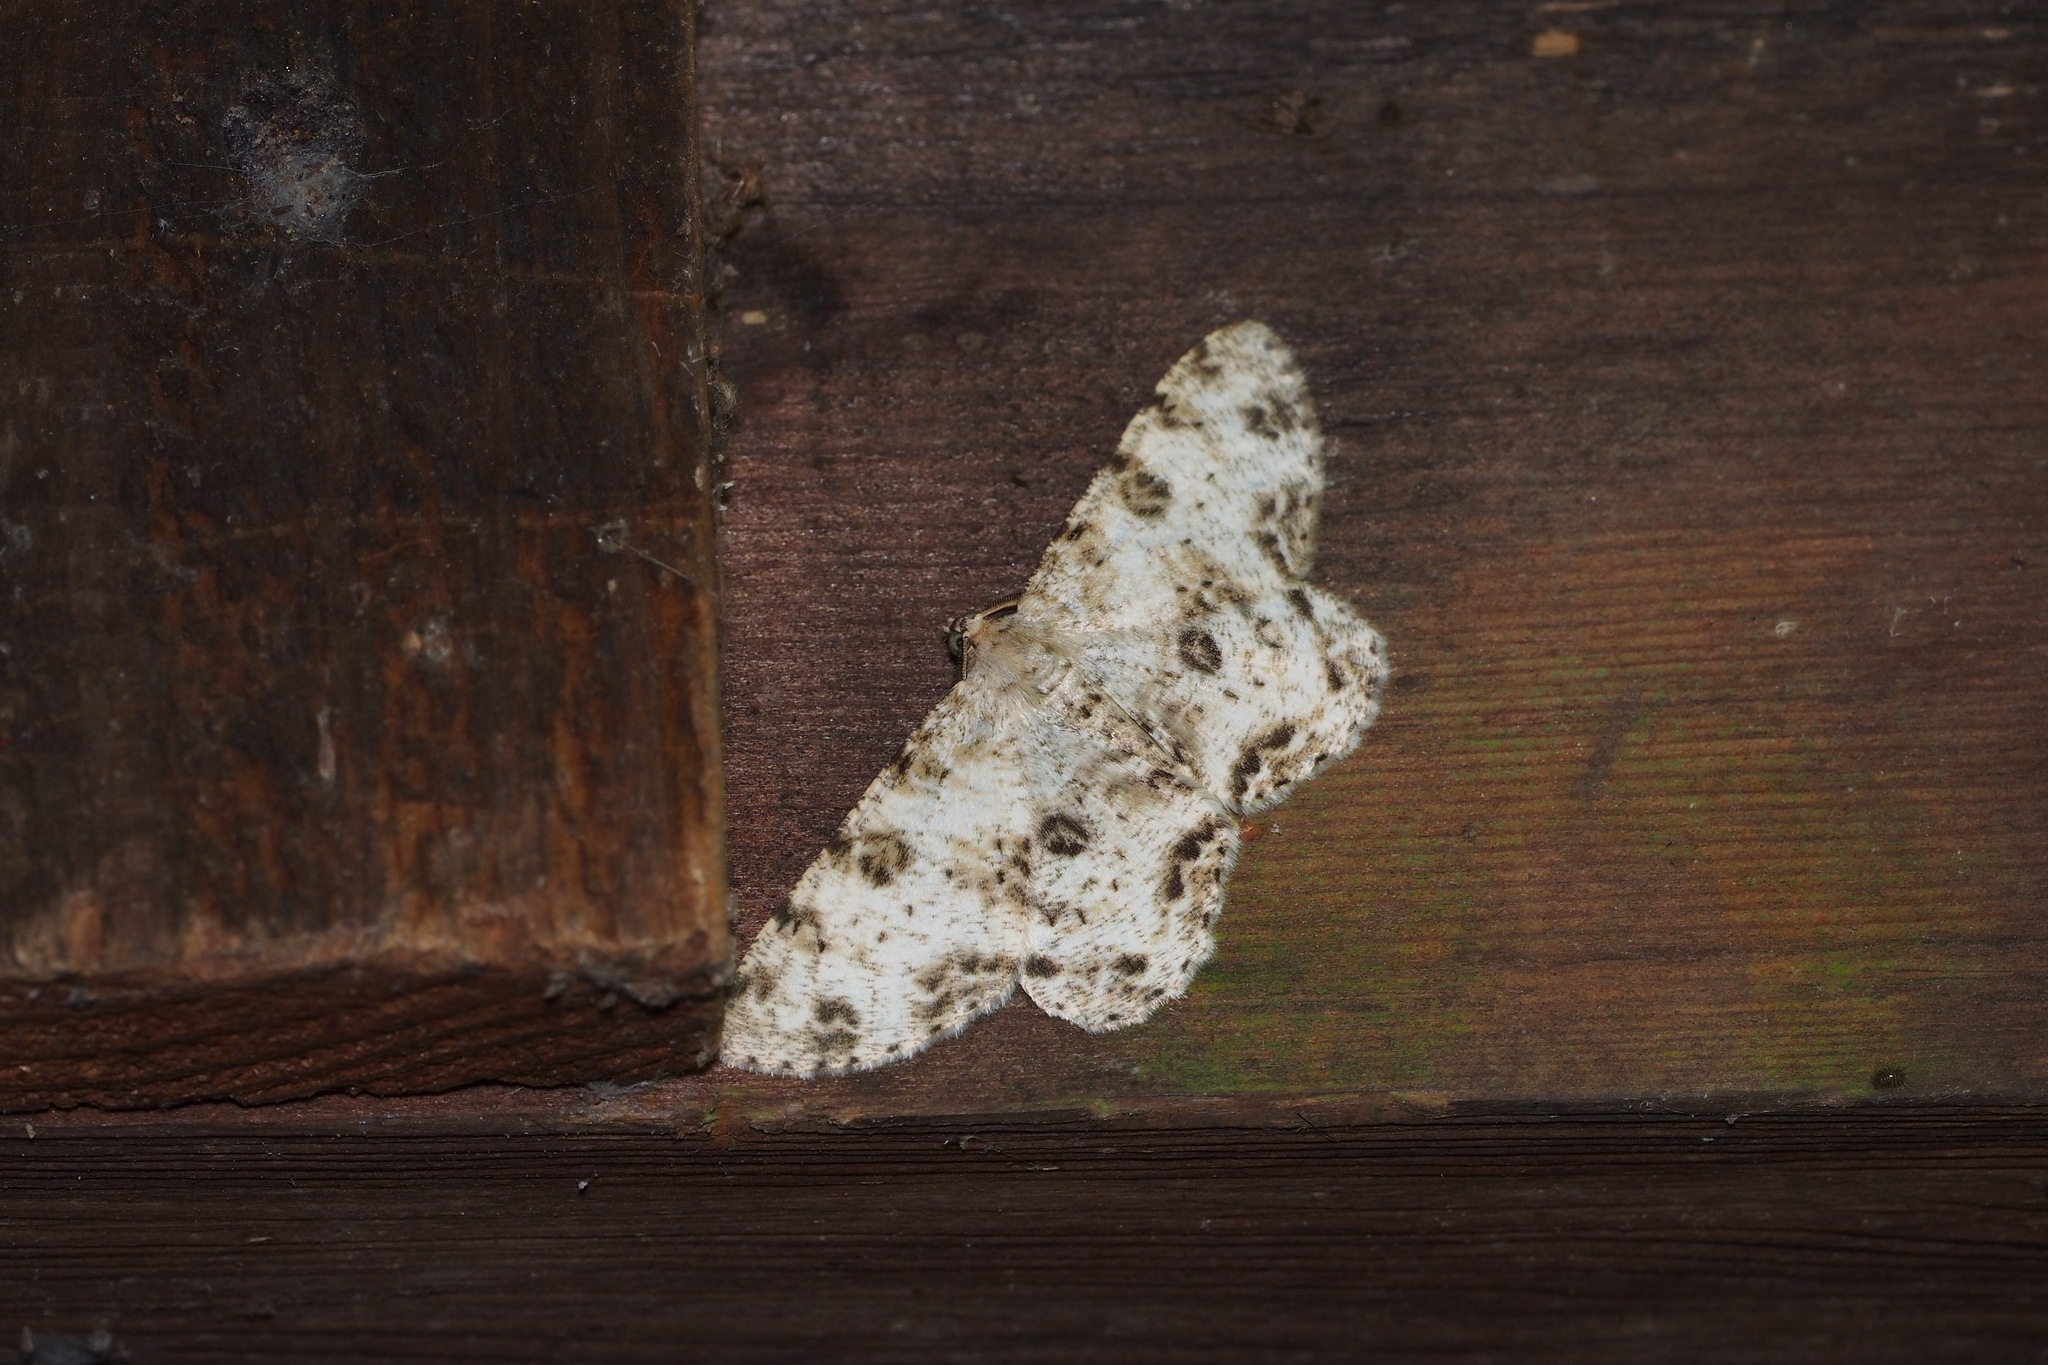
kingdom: Animalia
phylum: Arthropoda
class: Insecta
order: Lepidoptera
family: Geometridae
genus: Ophthalmitis
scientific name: Ophthalmitis albosignaria
